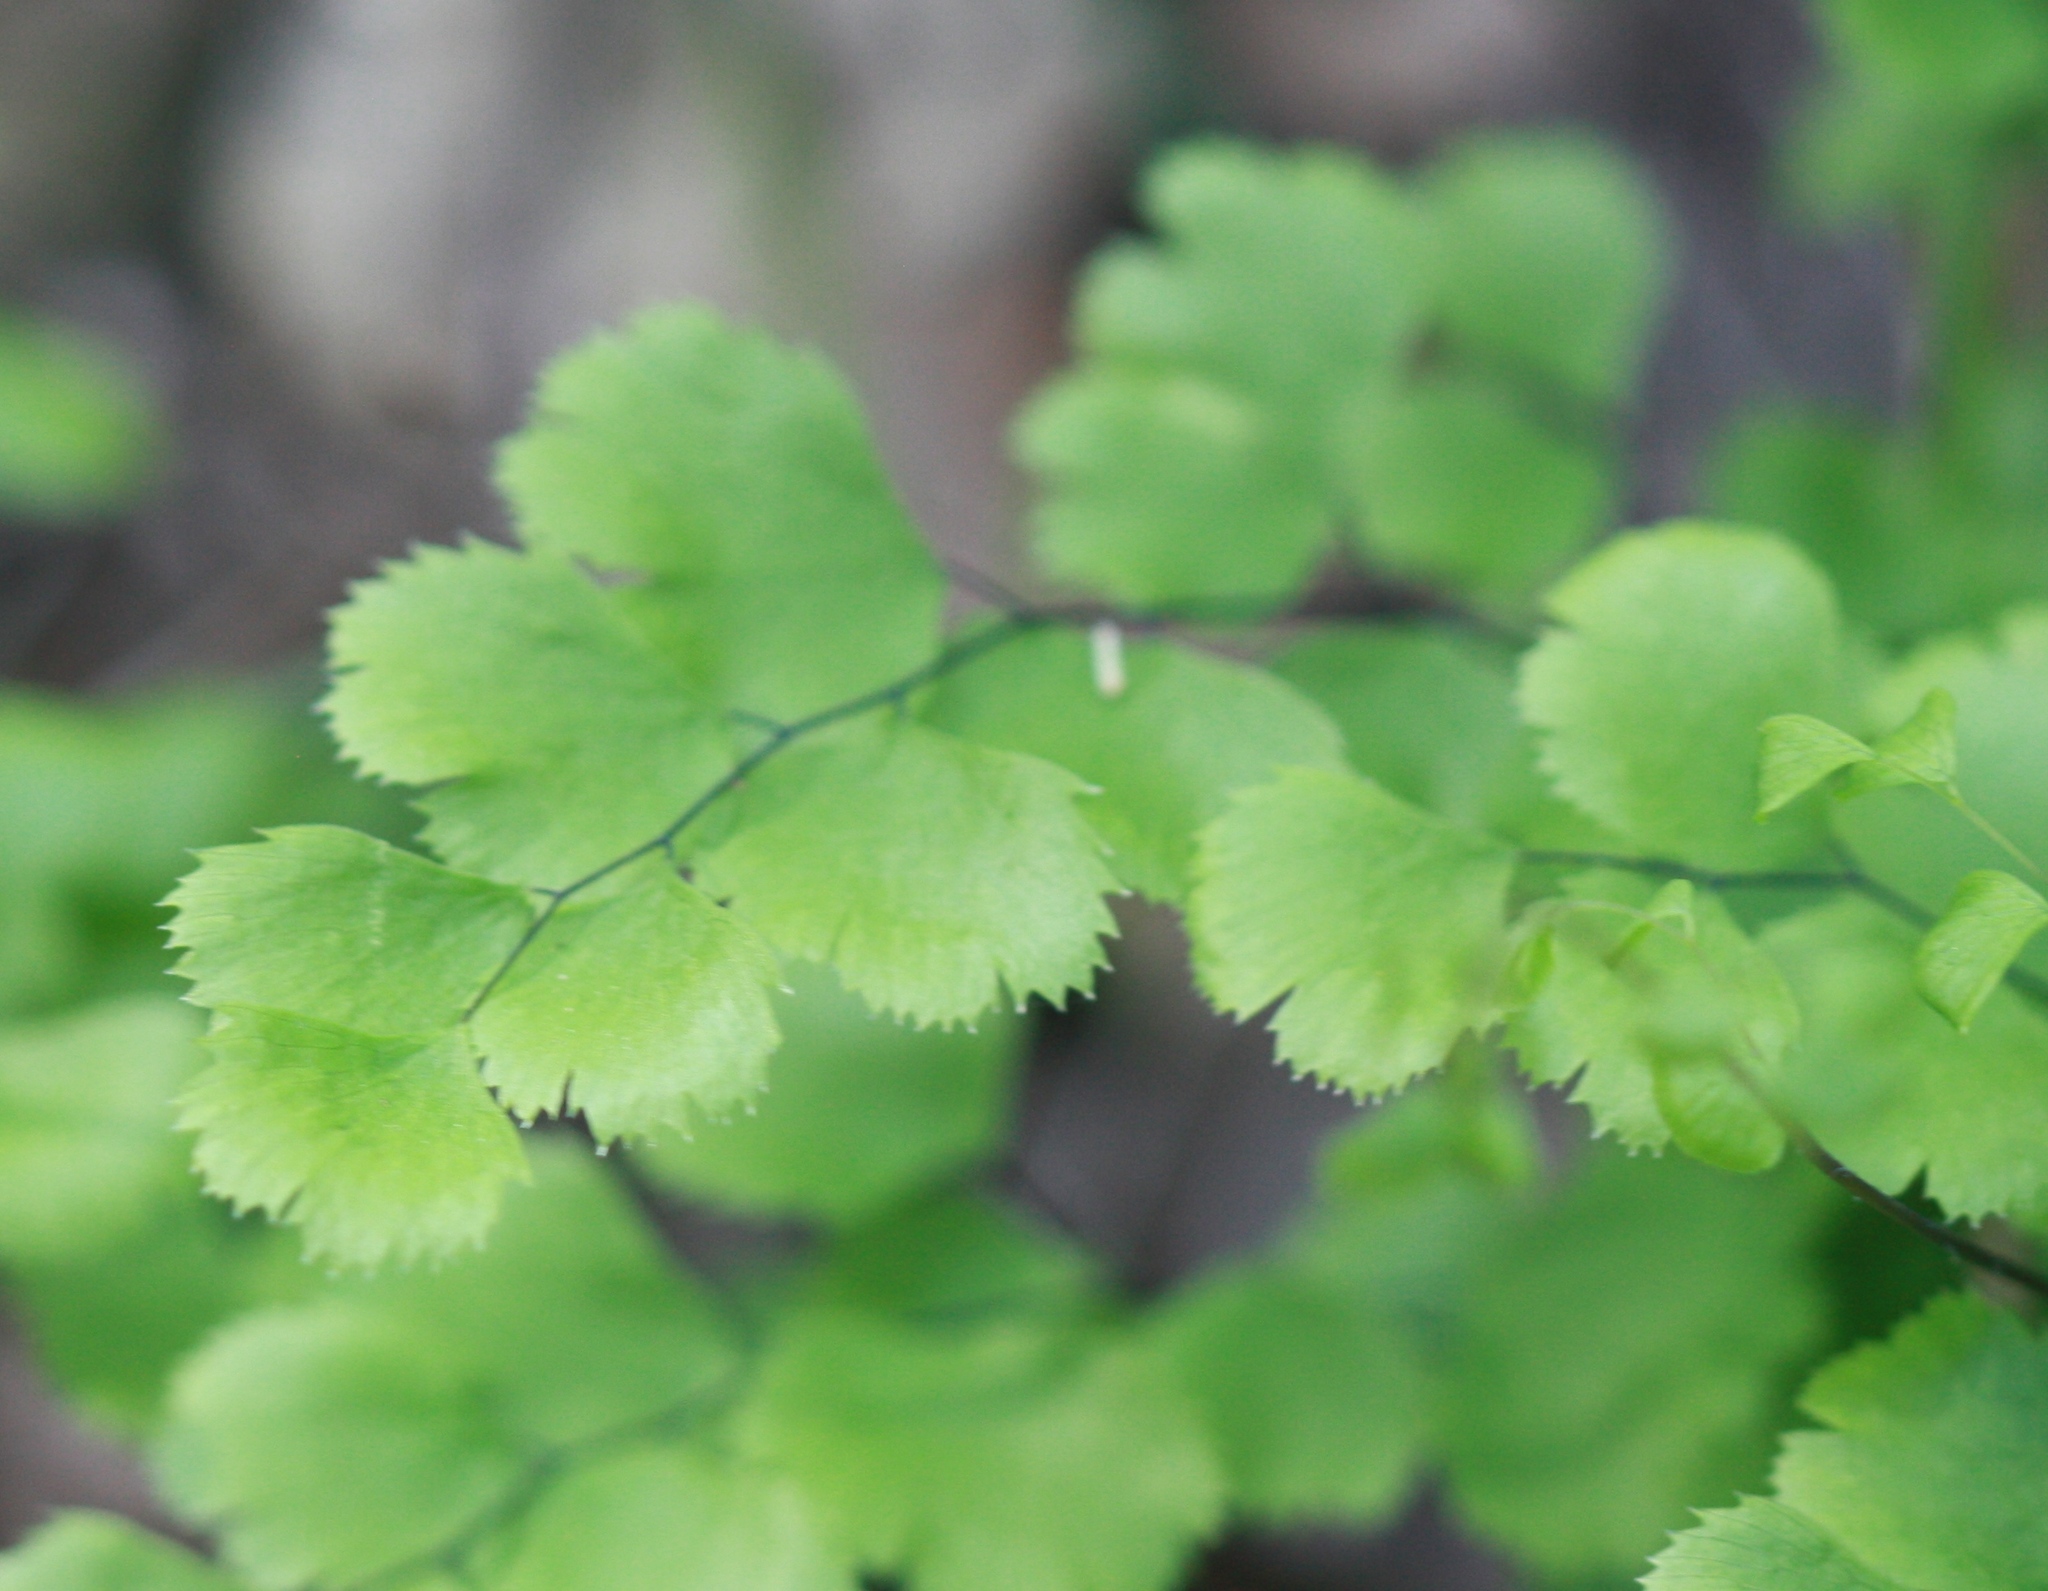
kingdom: Plantae
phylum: Tracheophyta
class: Polypodiopsida
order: Polypodiales
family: Pteridaceae
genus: Adiantum
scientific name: Adiantum jordanii
